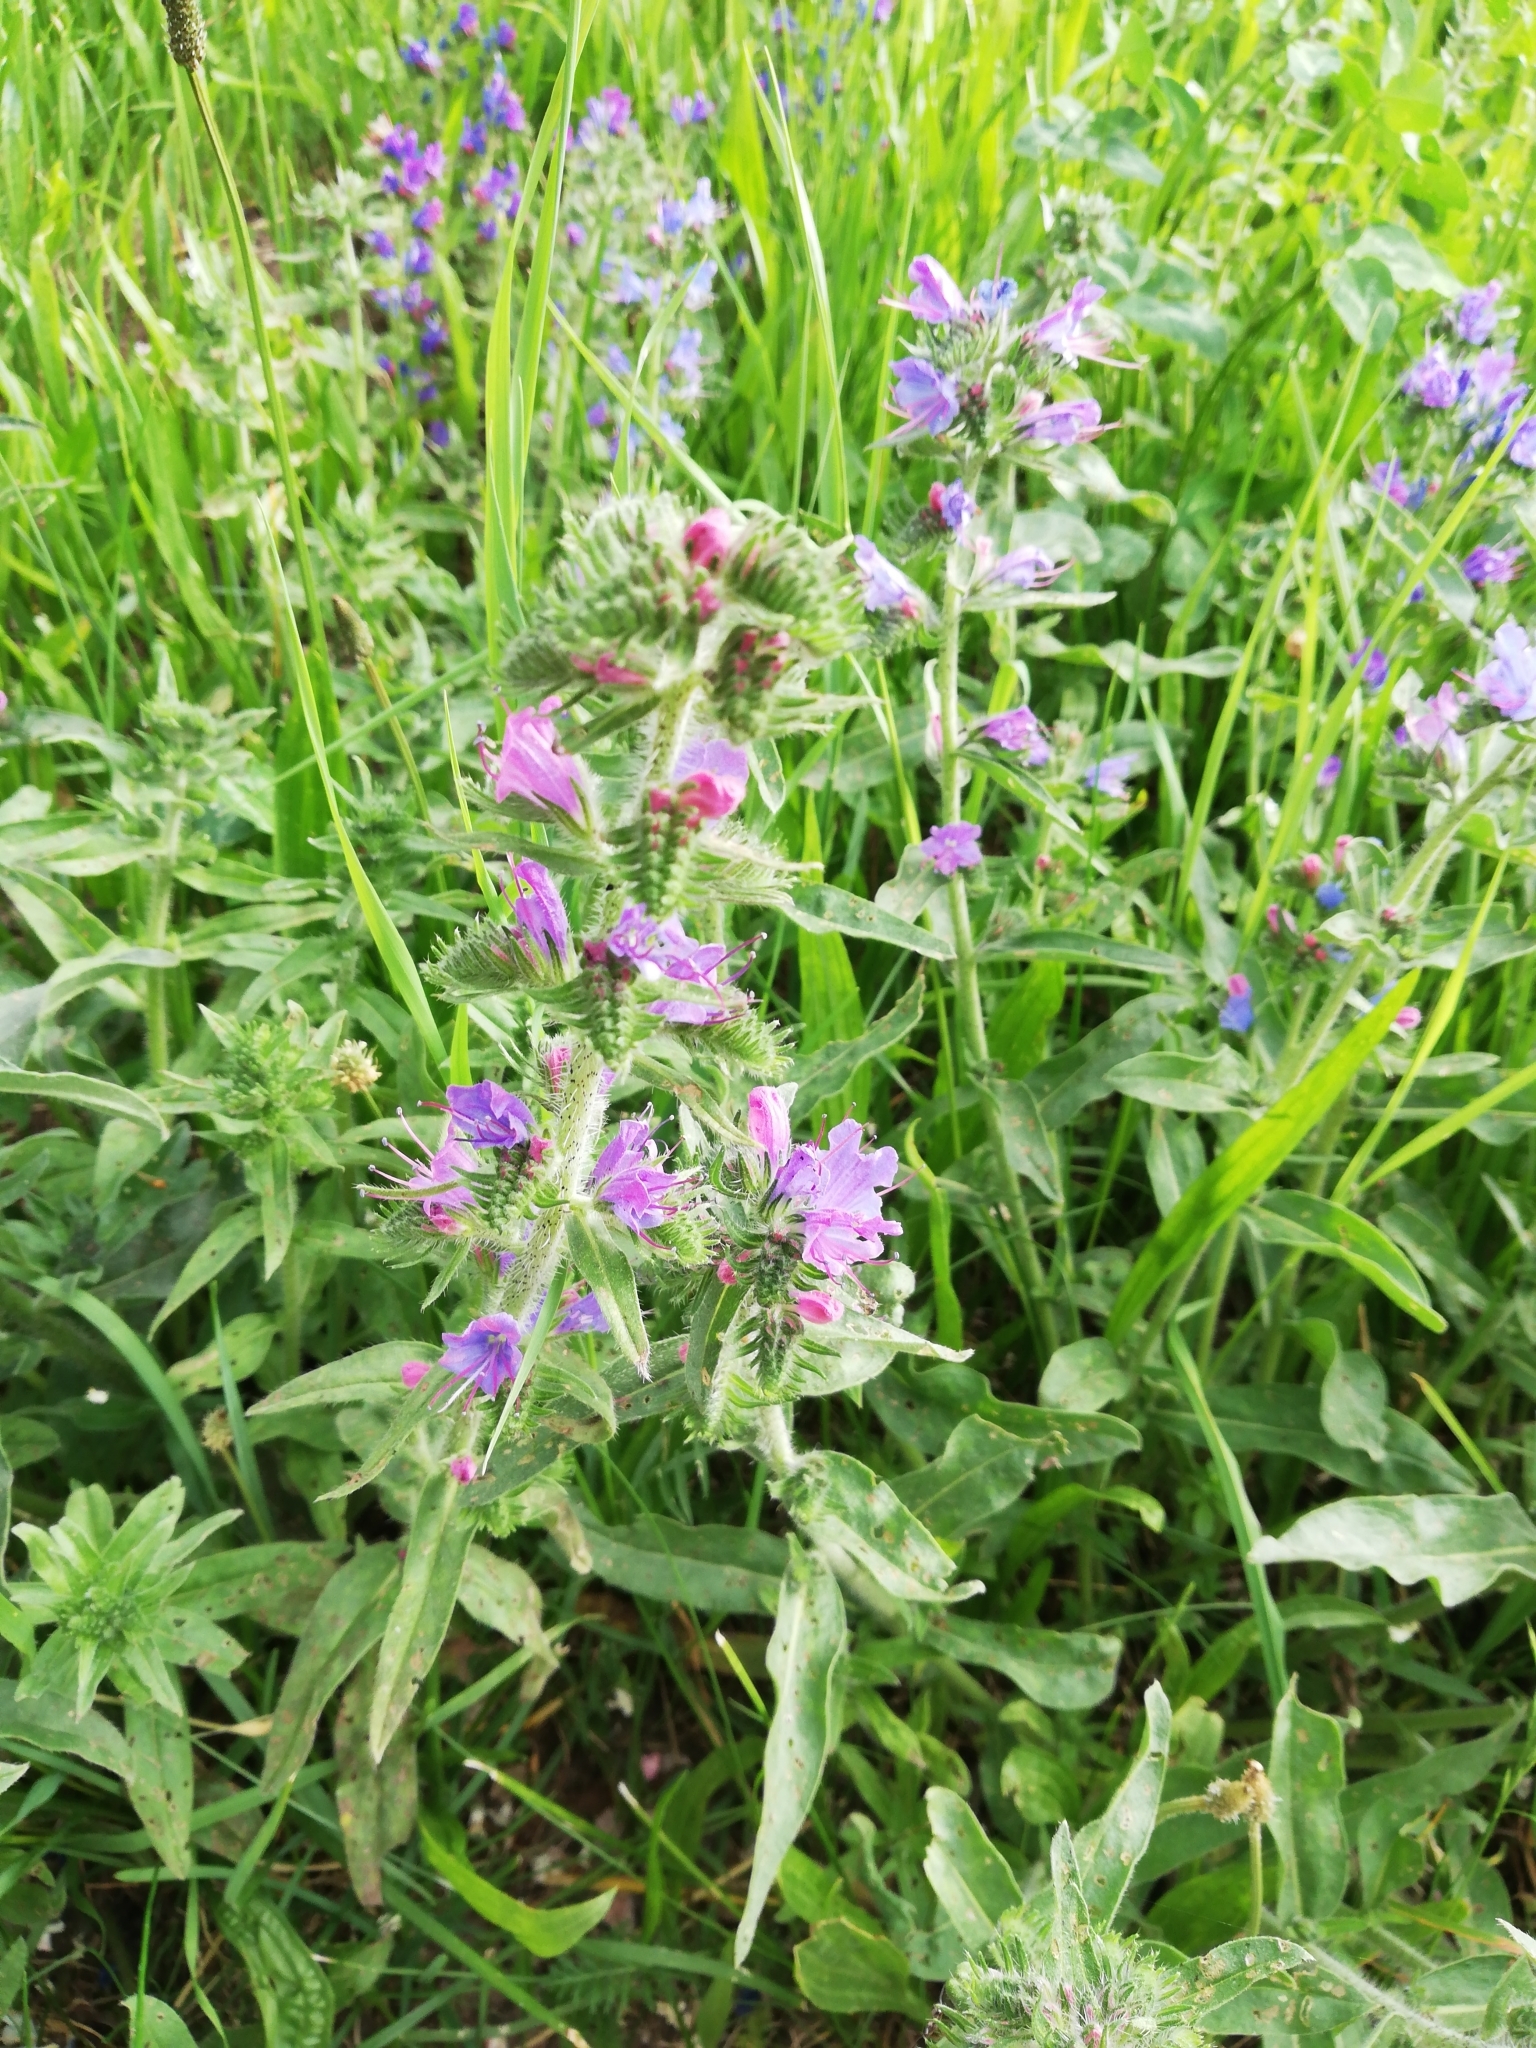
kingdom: Plantae
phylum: Tracheophyta
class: Magnoliopsida
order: Boraginales
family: Boraginaceae
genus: Echium
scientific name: Echium vulgare
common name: Common viper's bugloss
